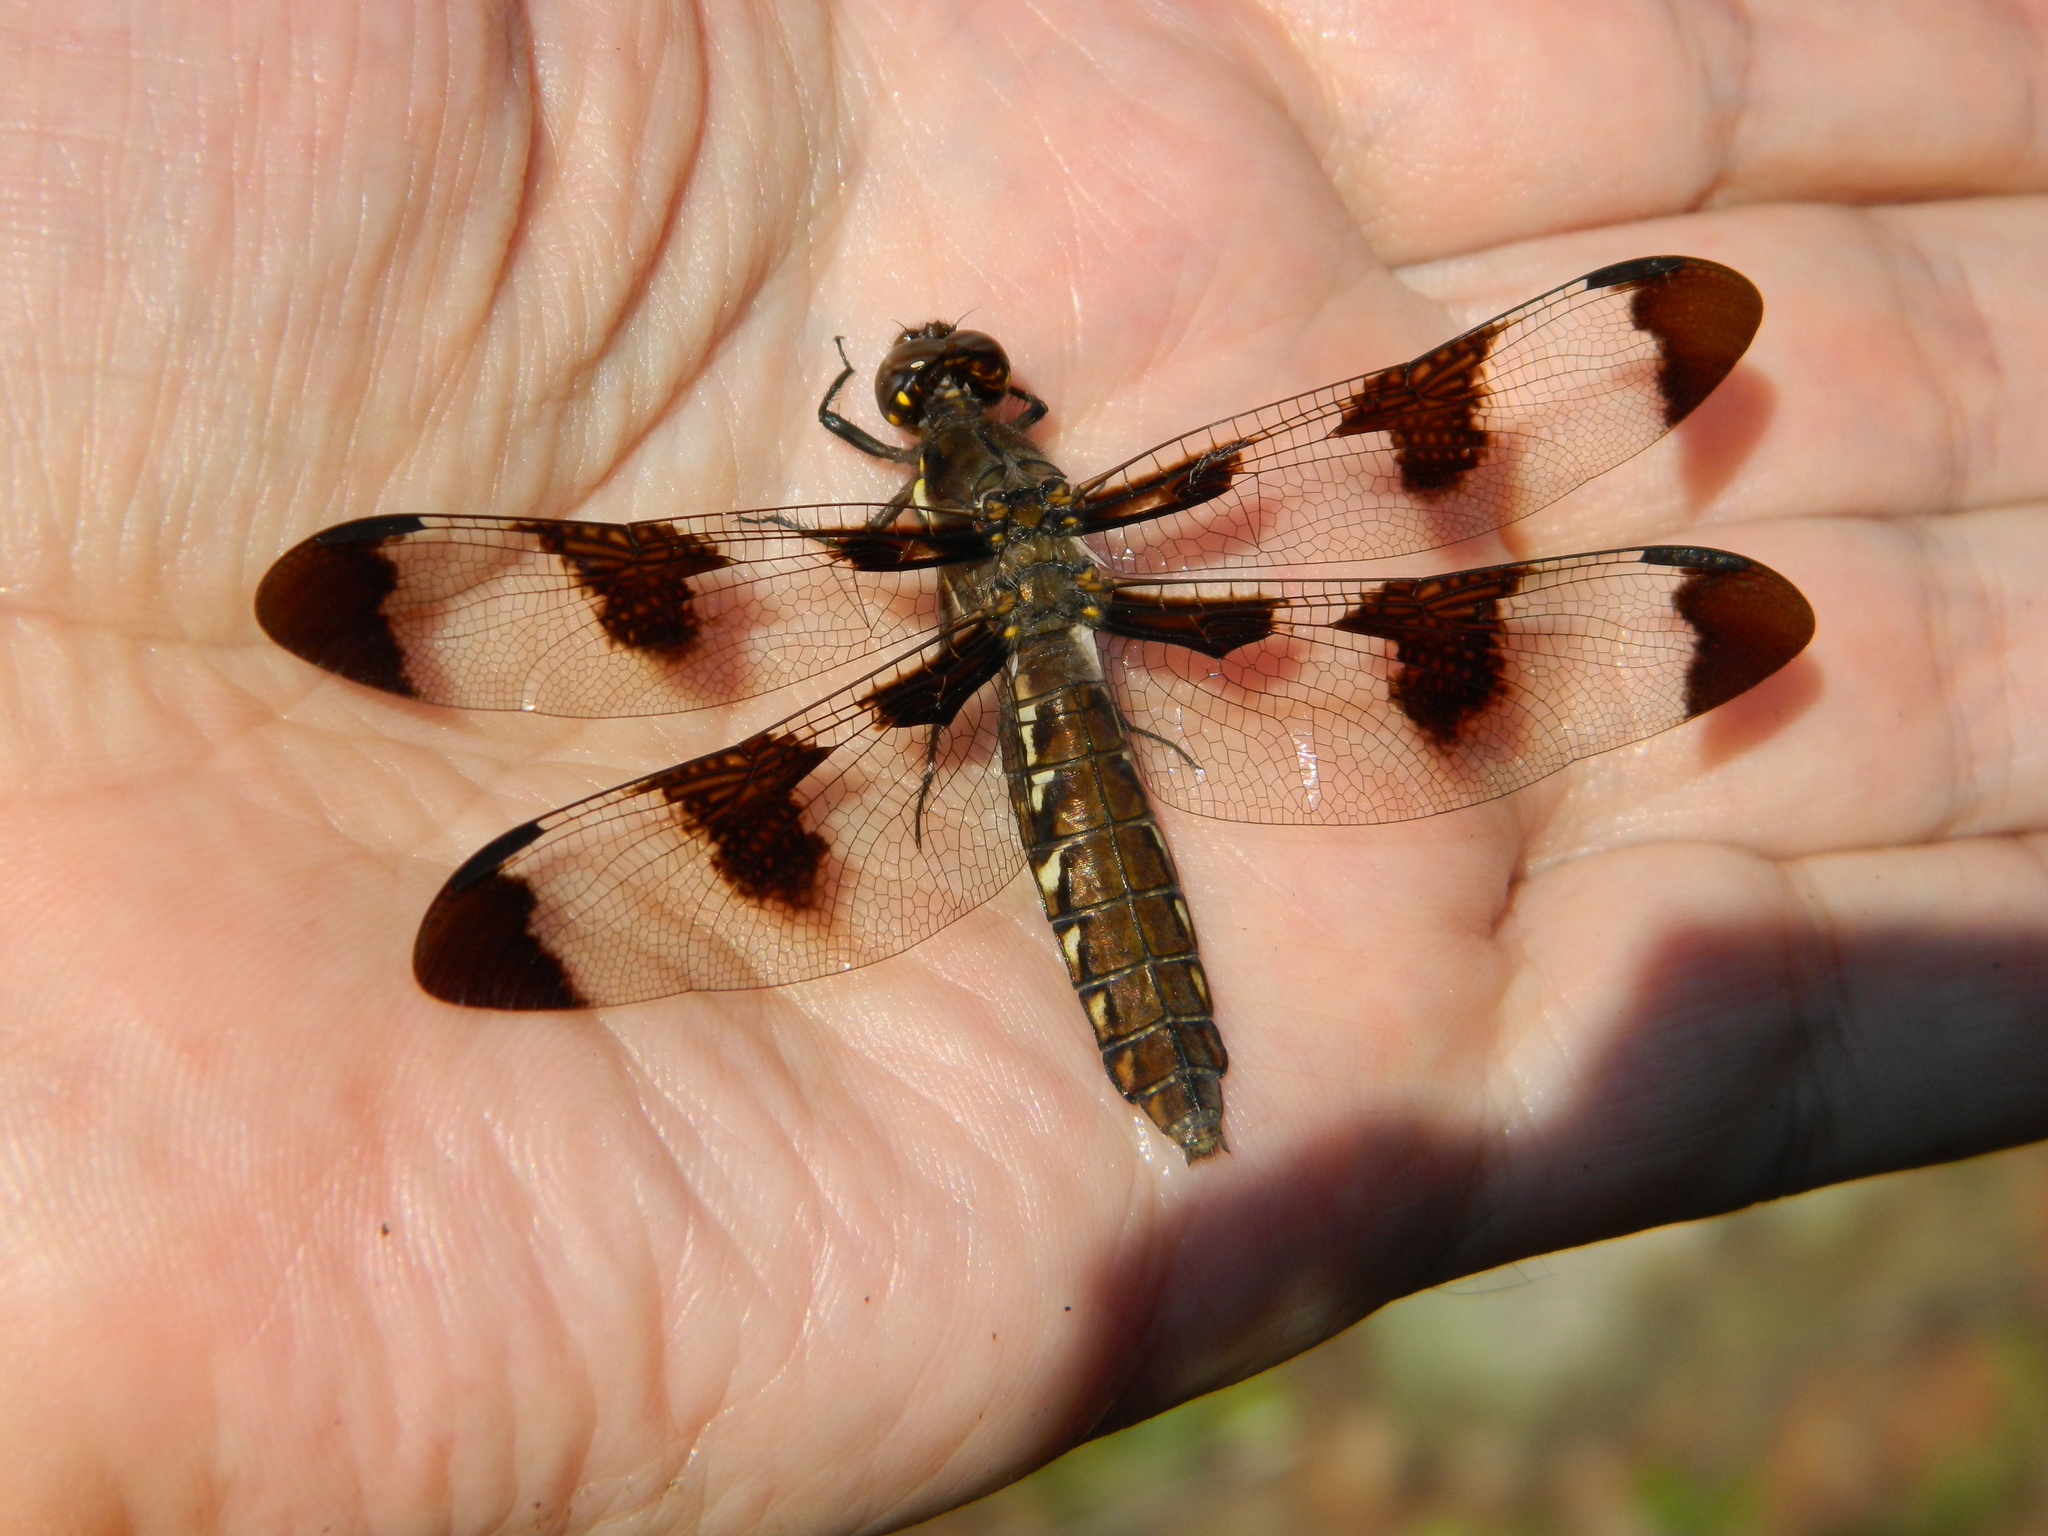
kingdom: Animalia
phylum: Arthropoda
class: Insecta
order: Odonata
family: Libellulidae
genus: Plathemis
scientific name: Plathemis lydia
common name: Common whitetail
